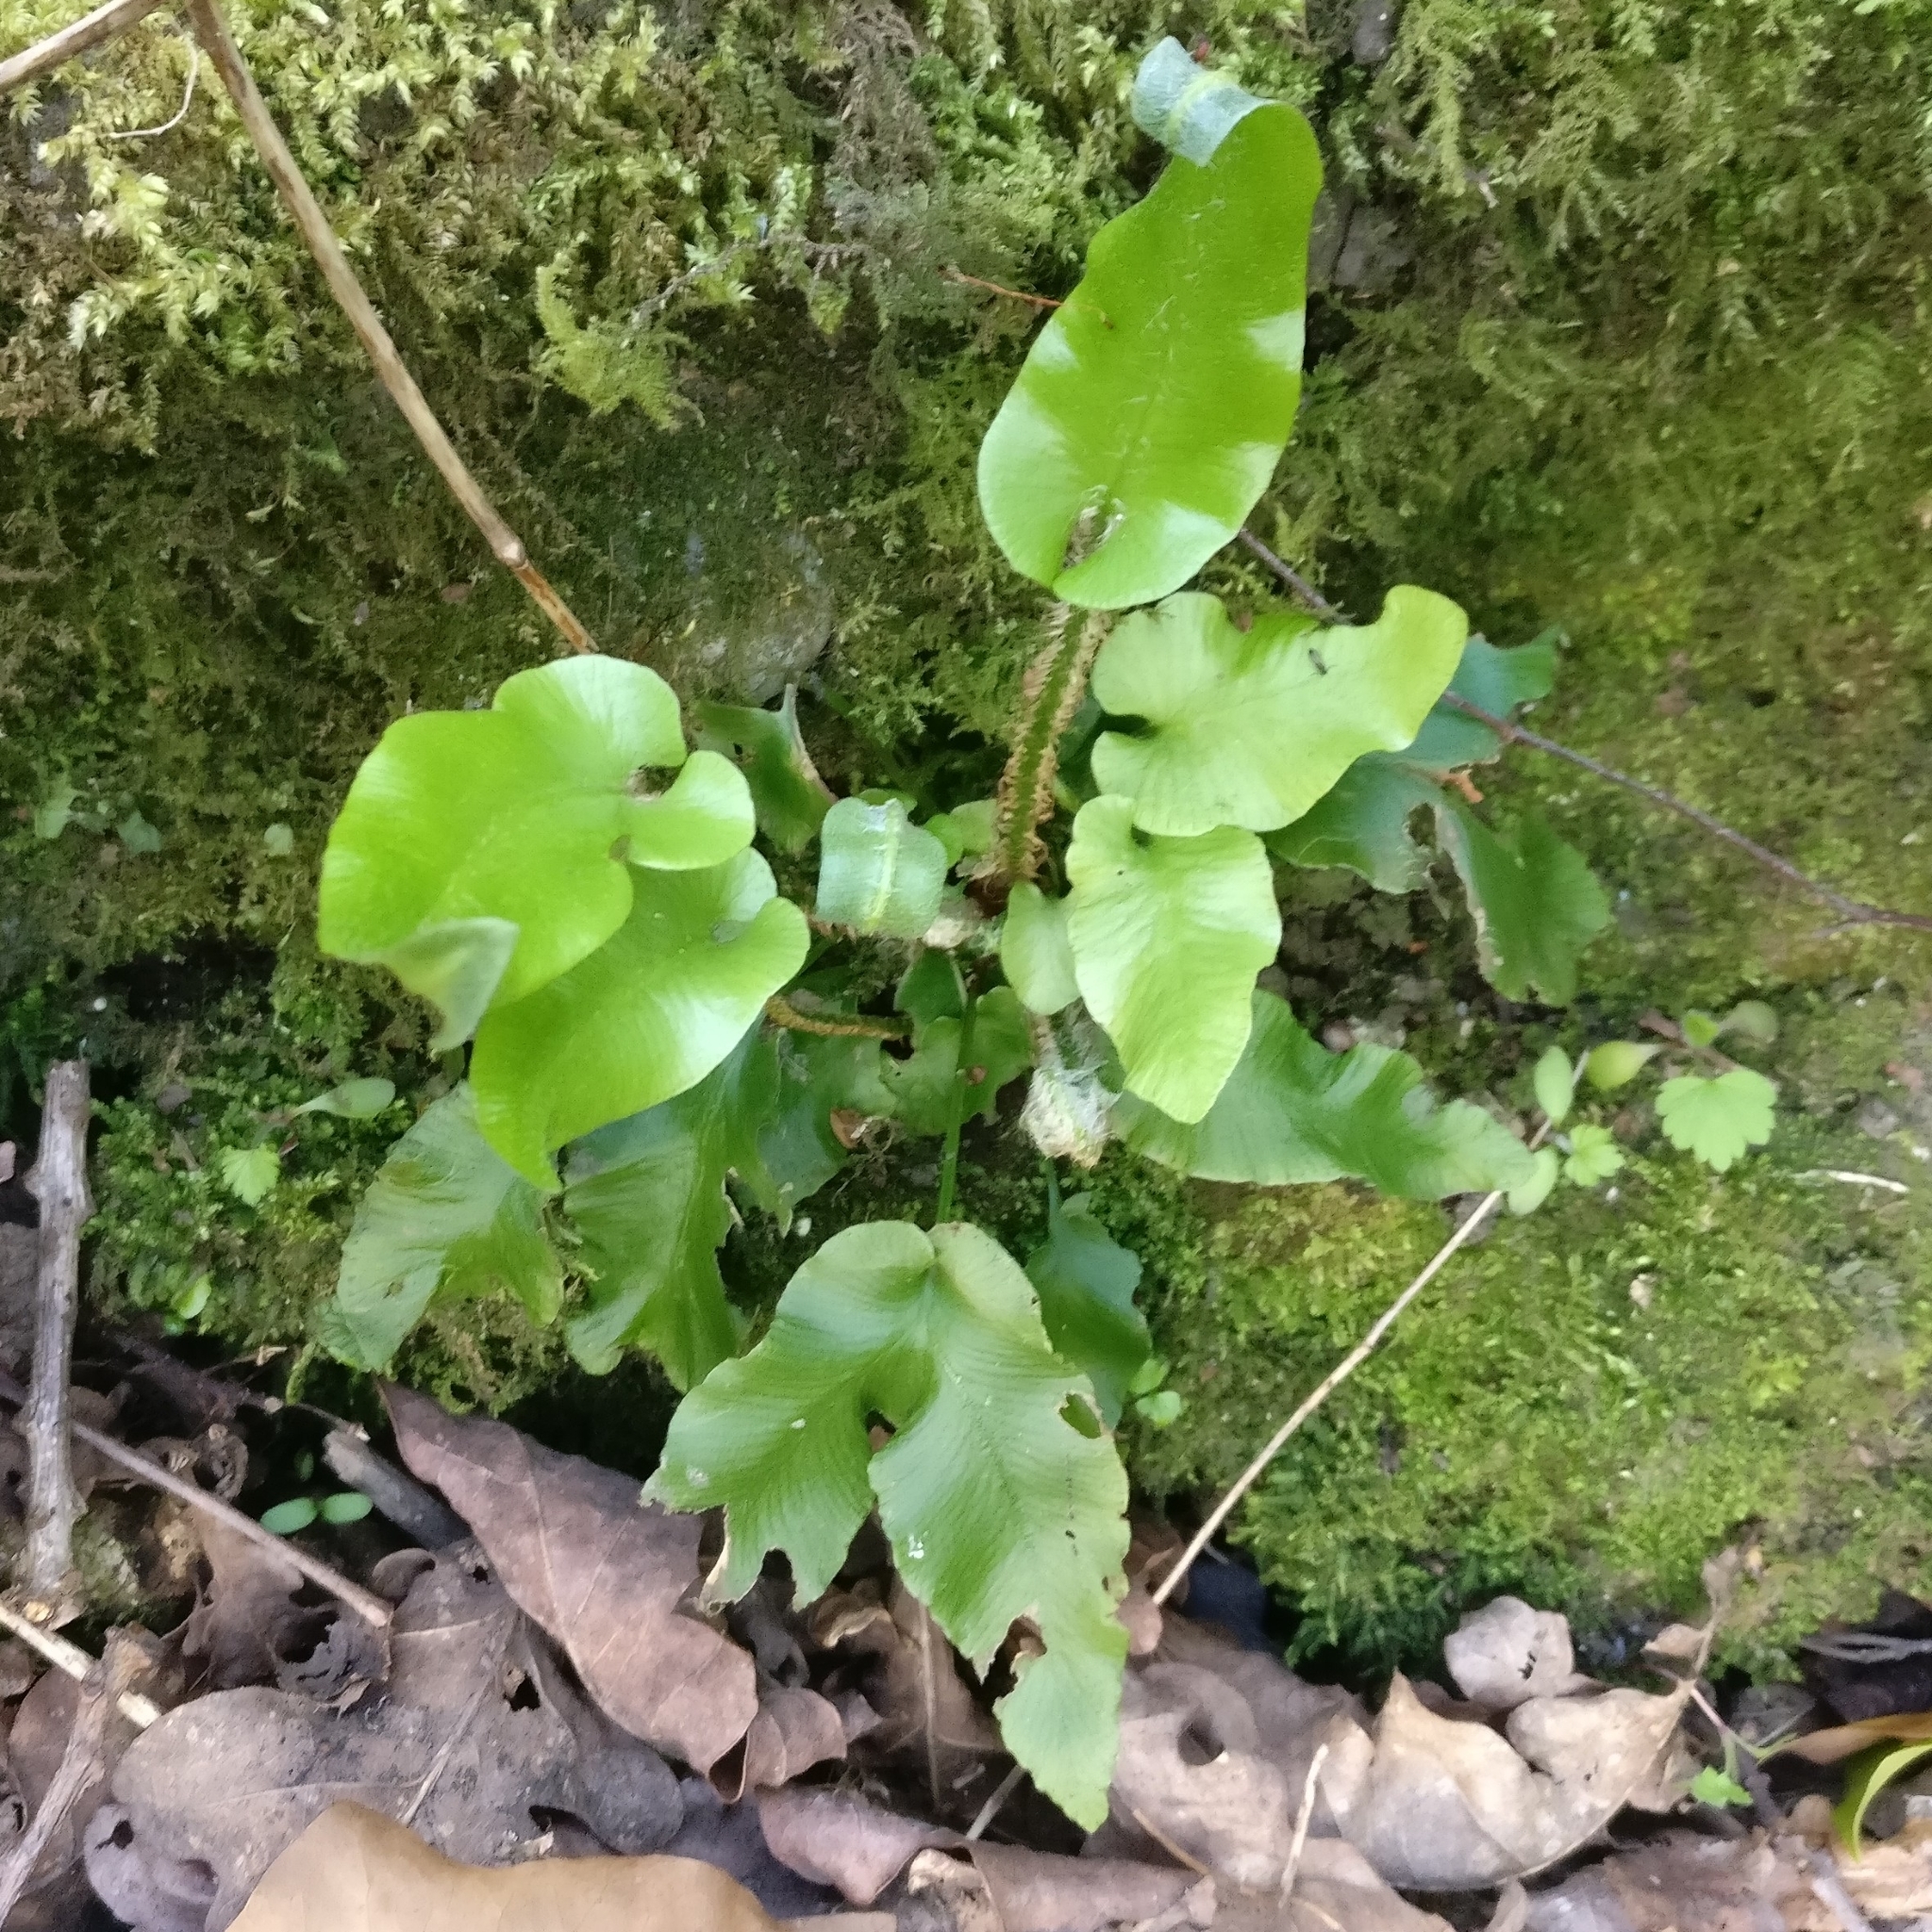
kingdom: Plantae
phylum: Tracheophyta
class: Polypodiopsida
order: Polypodiales
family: Aspleniaceae
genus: Asplenium
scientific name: Asplenium scolopendrium
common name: Hart's-tongue fern
